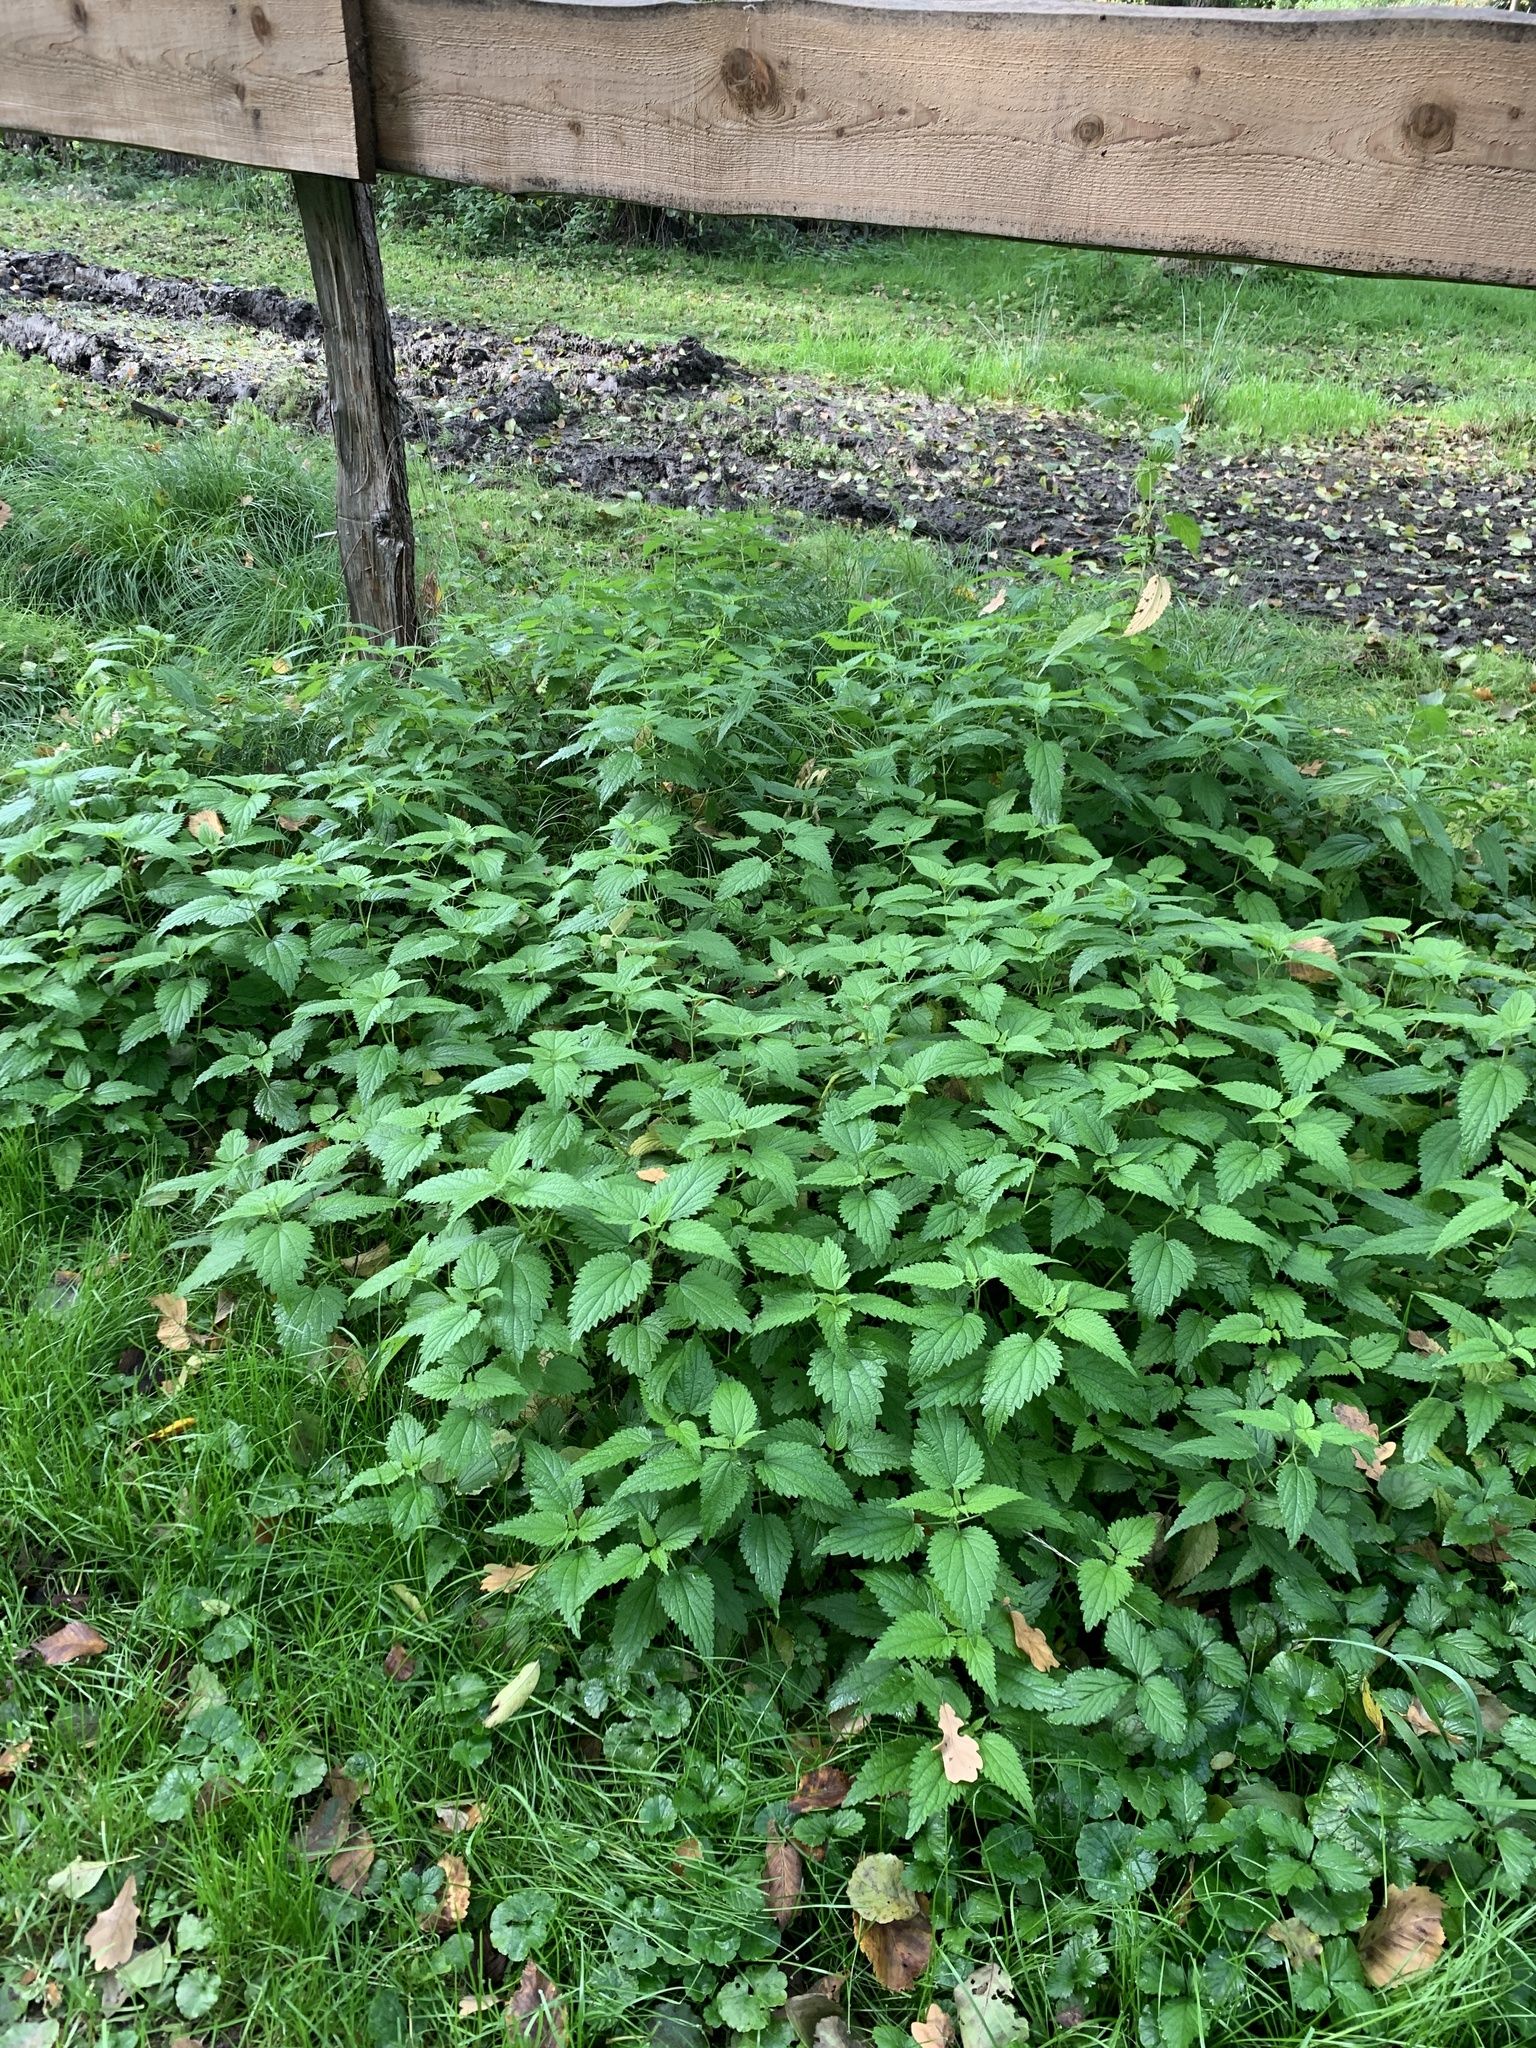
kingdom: Plantae
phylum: Tracheophyta
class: Magnoliopsida
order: Rosales
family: Urticaceae
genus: Urtica
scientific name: Urtica dioica
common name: Common nettle
